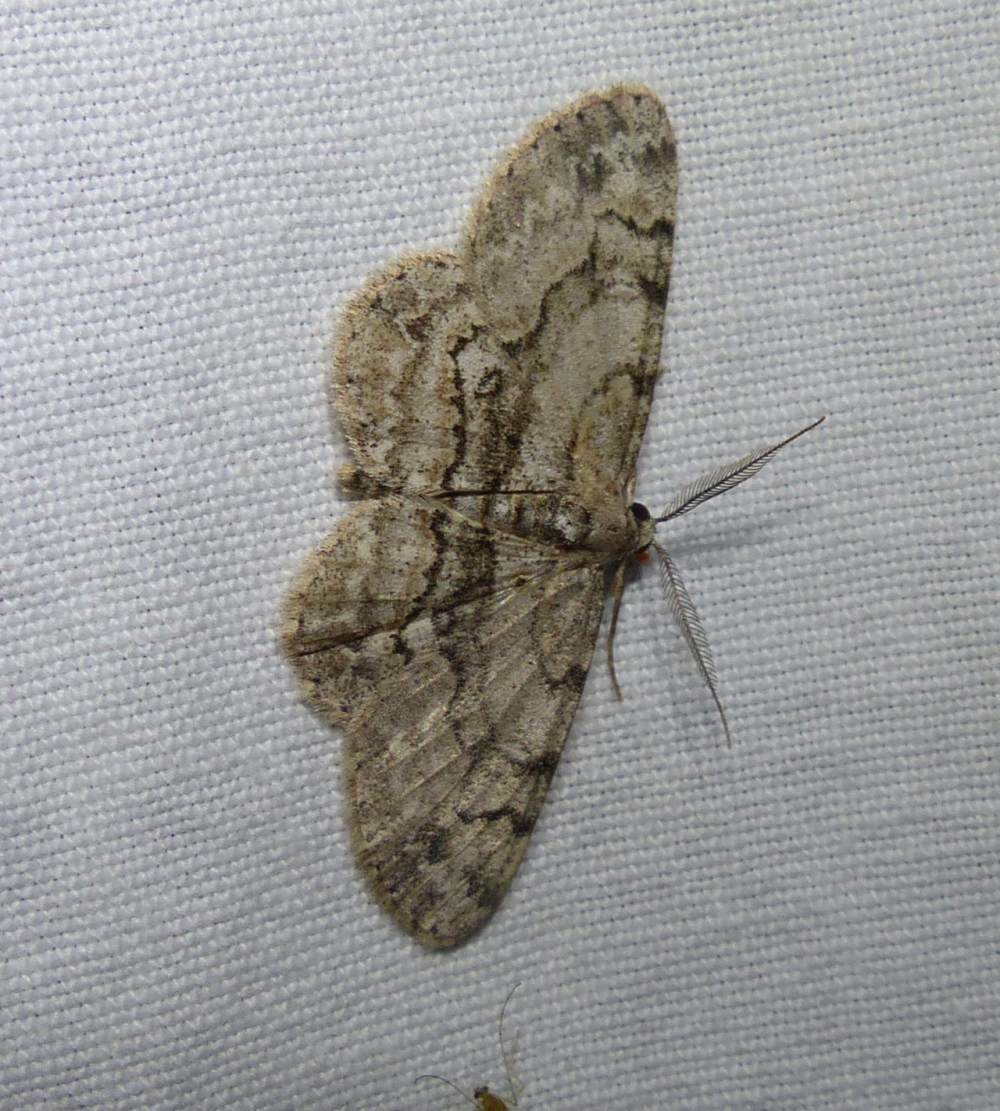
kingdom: Animalia
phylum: Arthropoda
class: Insecta
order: Lepidoptera
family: Geometridae
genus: Iridopsis
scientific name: Iridopsis ephyraria
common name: Pale-winged gray
